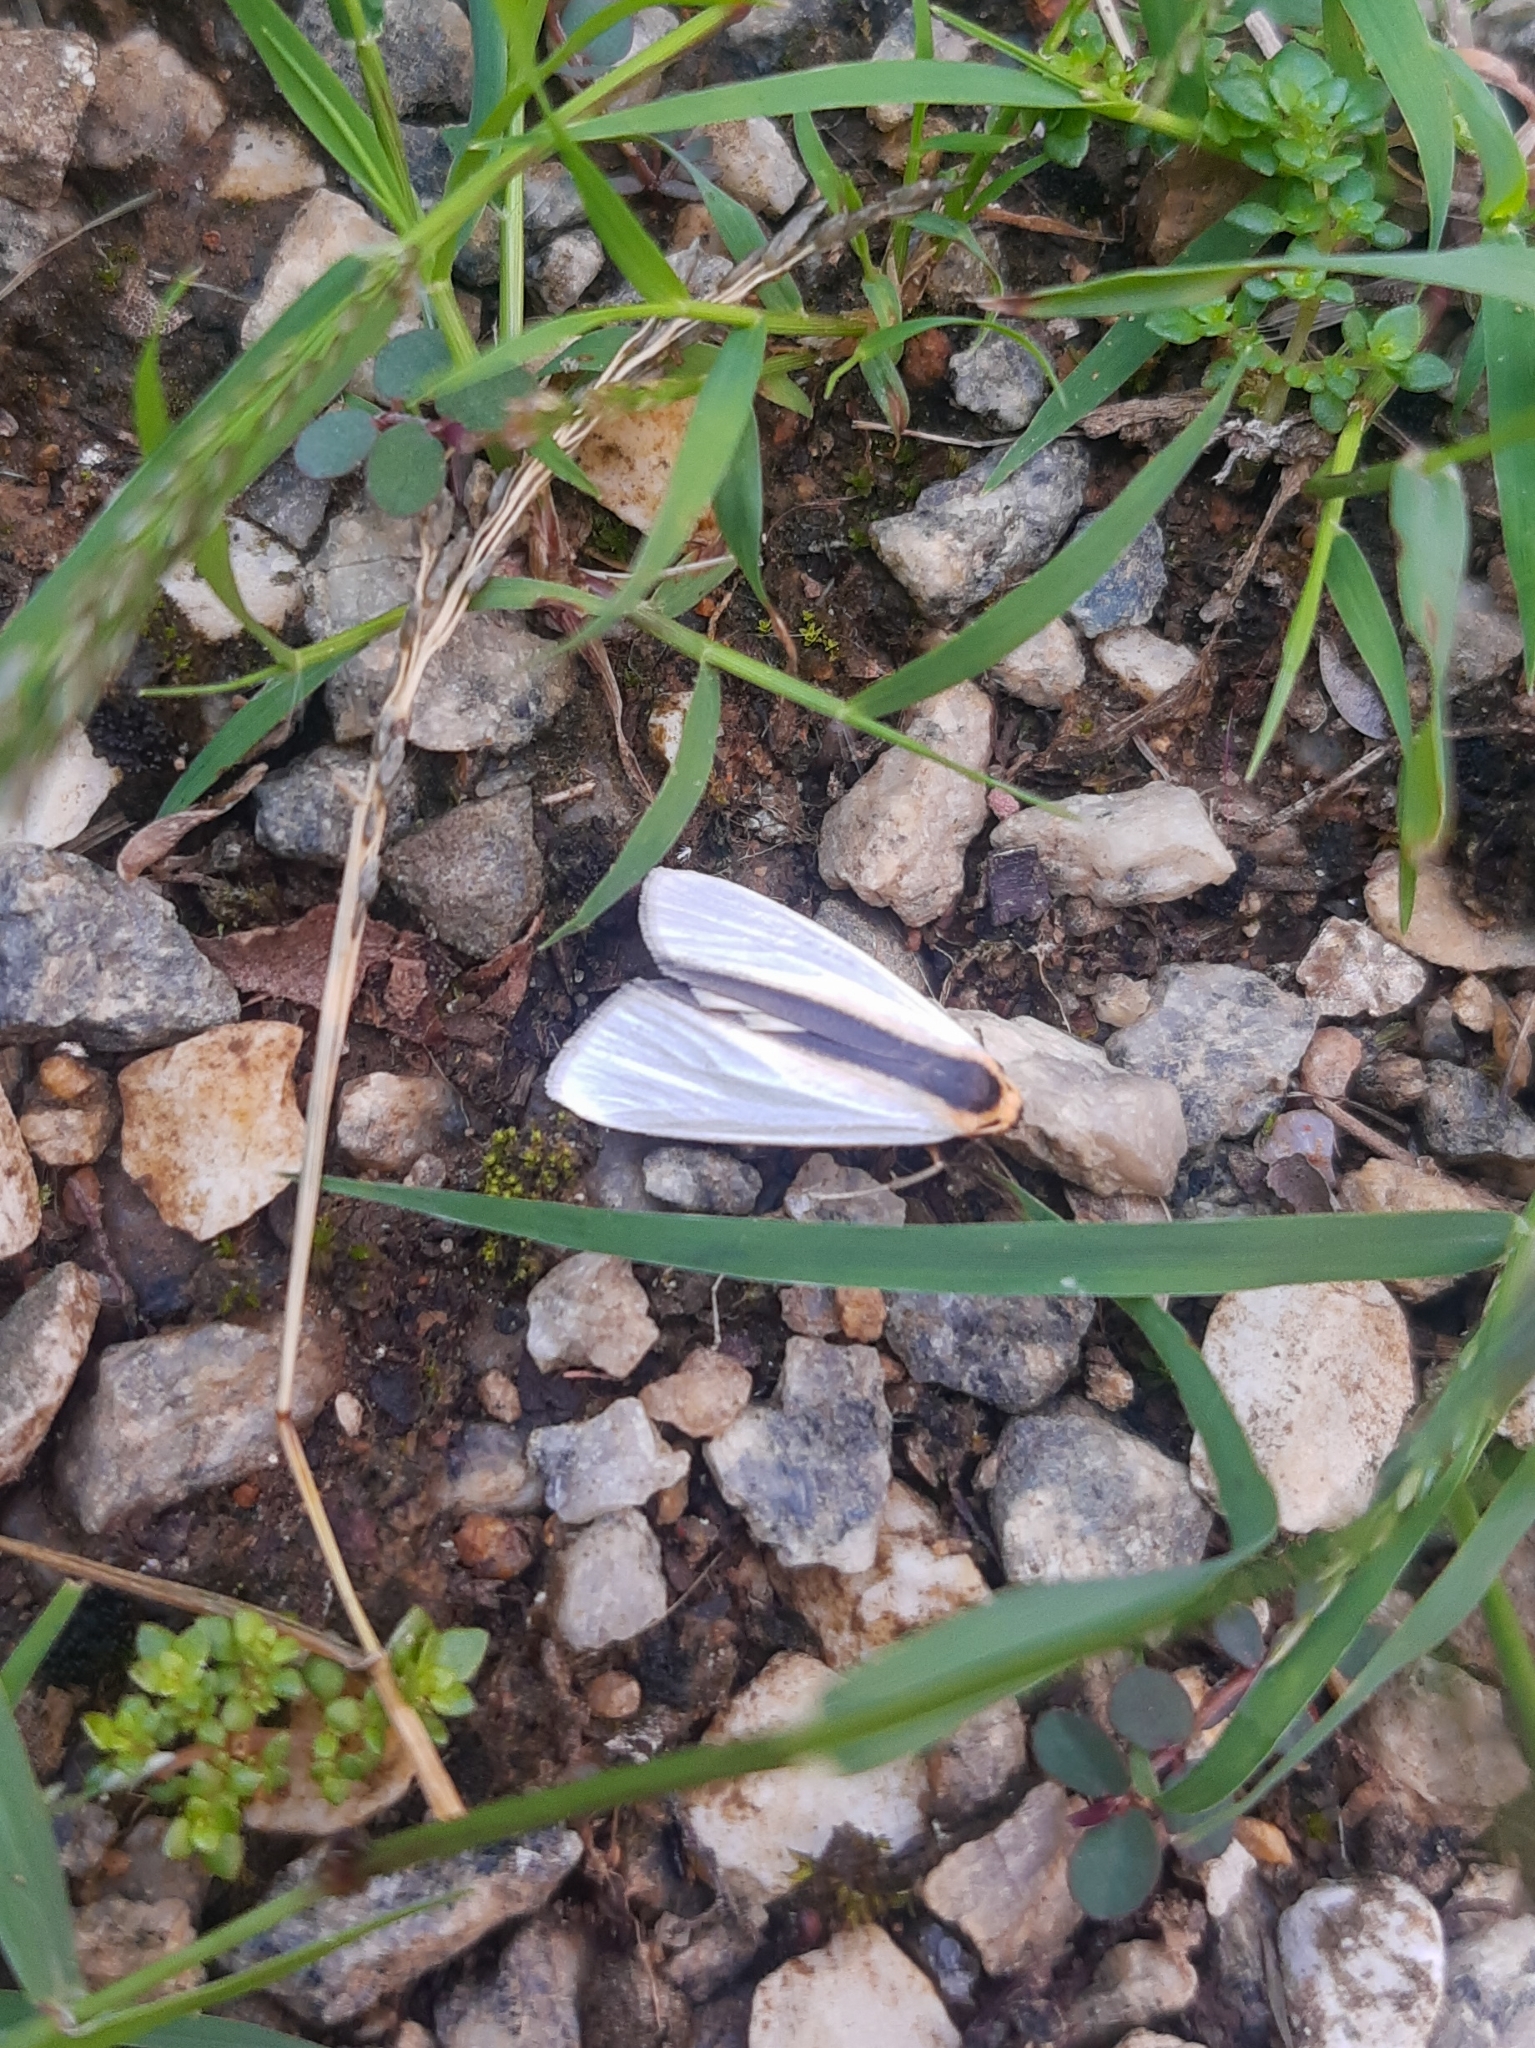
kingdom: Animalia
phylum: Arthropoda
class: Insecta
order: Lepidoptera
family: Erebidae
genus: Agylla
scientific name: Agylla separata
